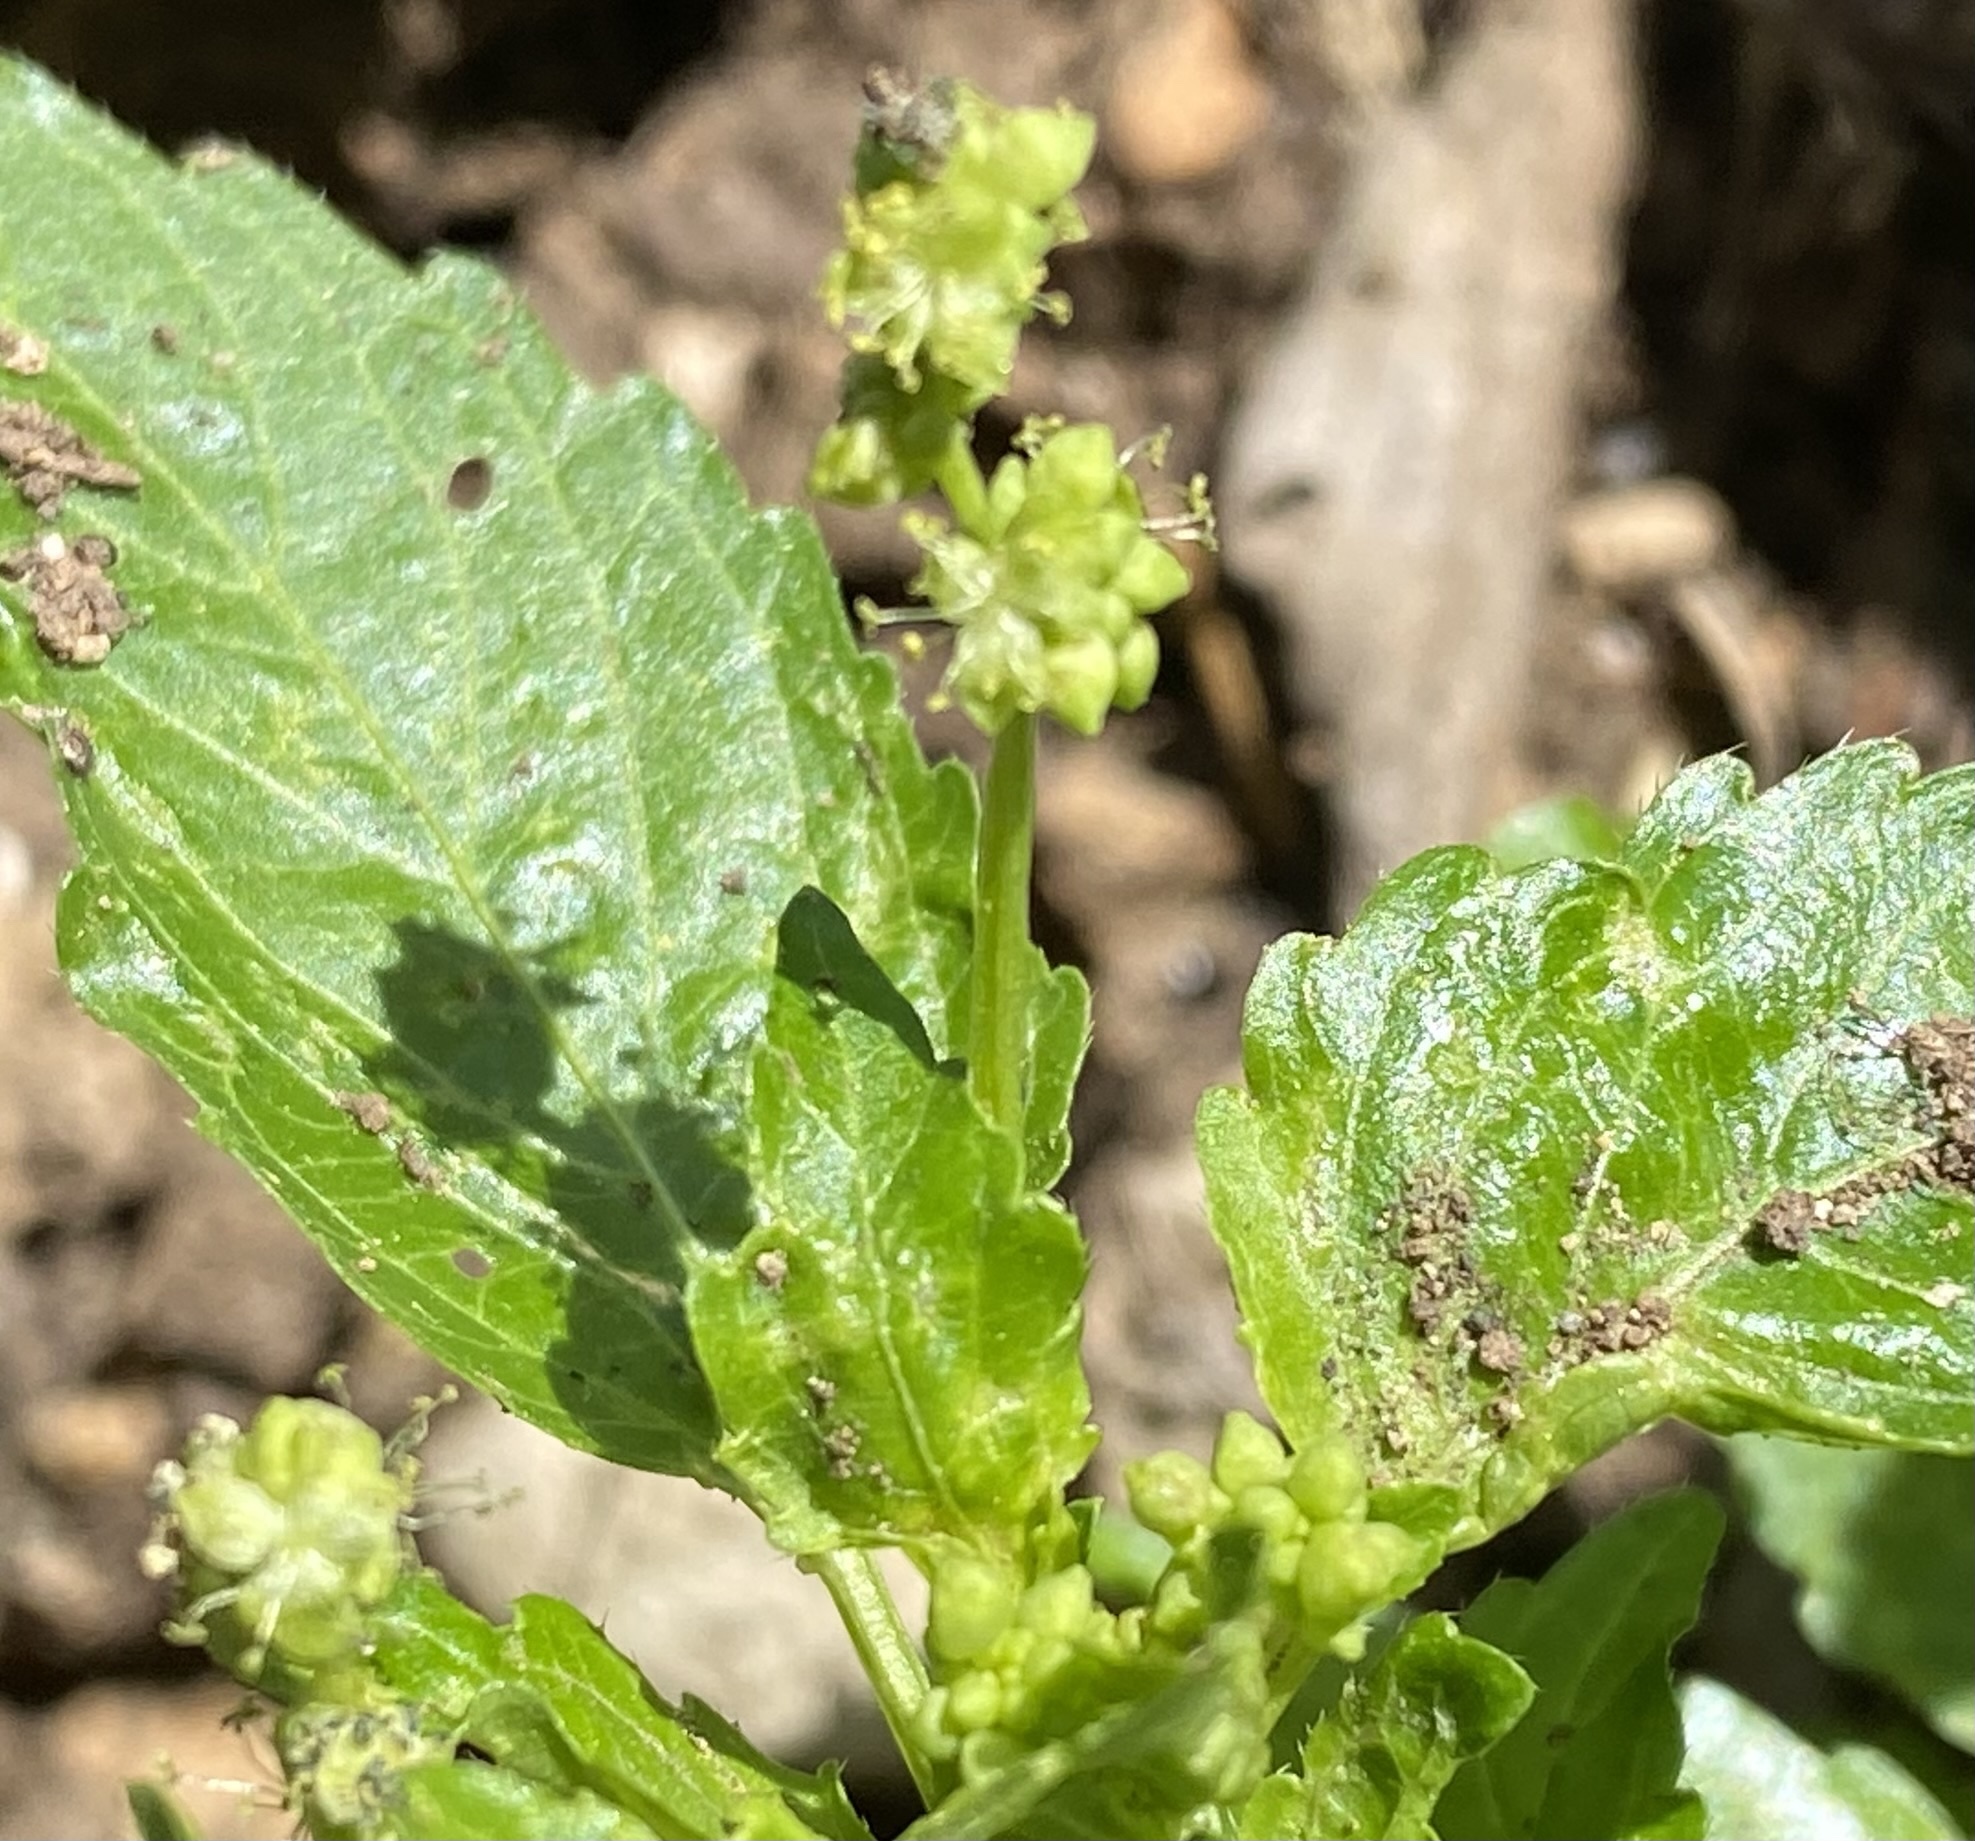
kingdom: Plantae
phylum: Tracheophyta
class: Magnoliopsida
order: Malpighiales
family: Euphorbiaceae
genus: Mercurialis
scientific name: Mercurialis annua
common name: Annual mercury
